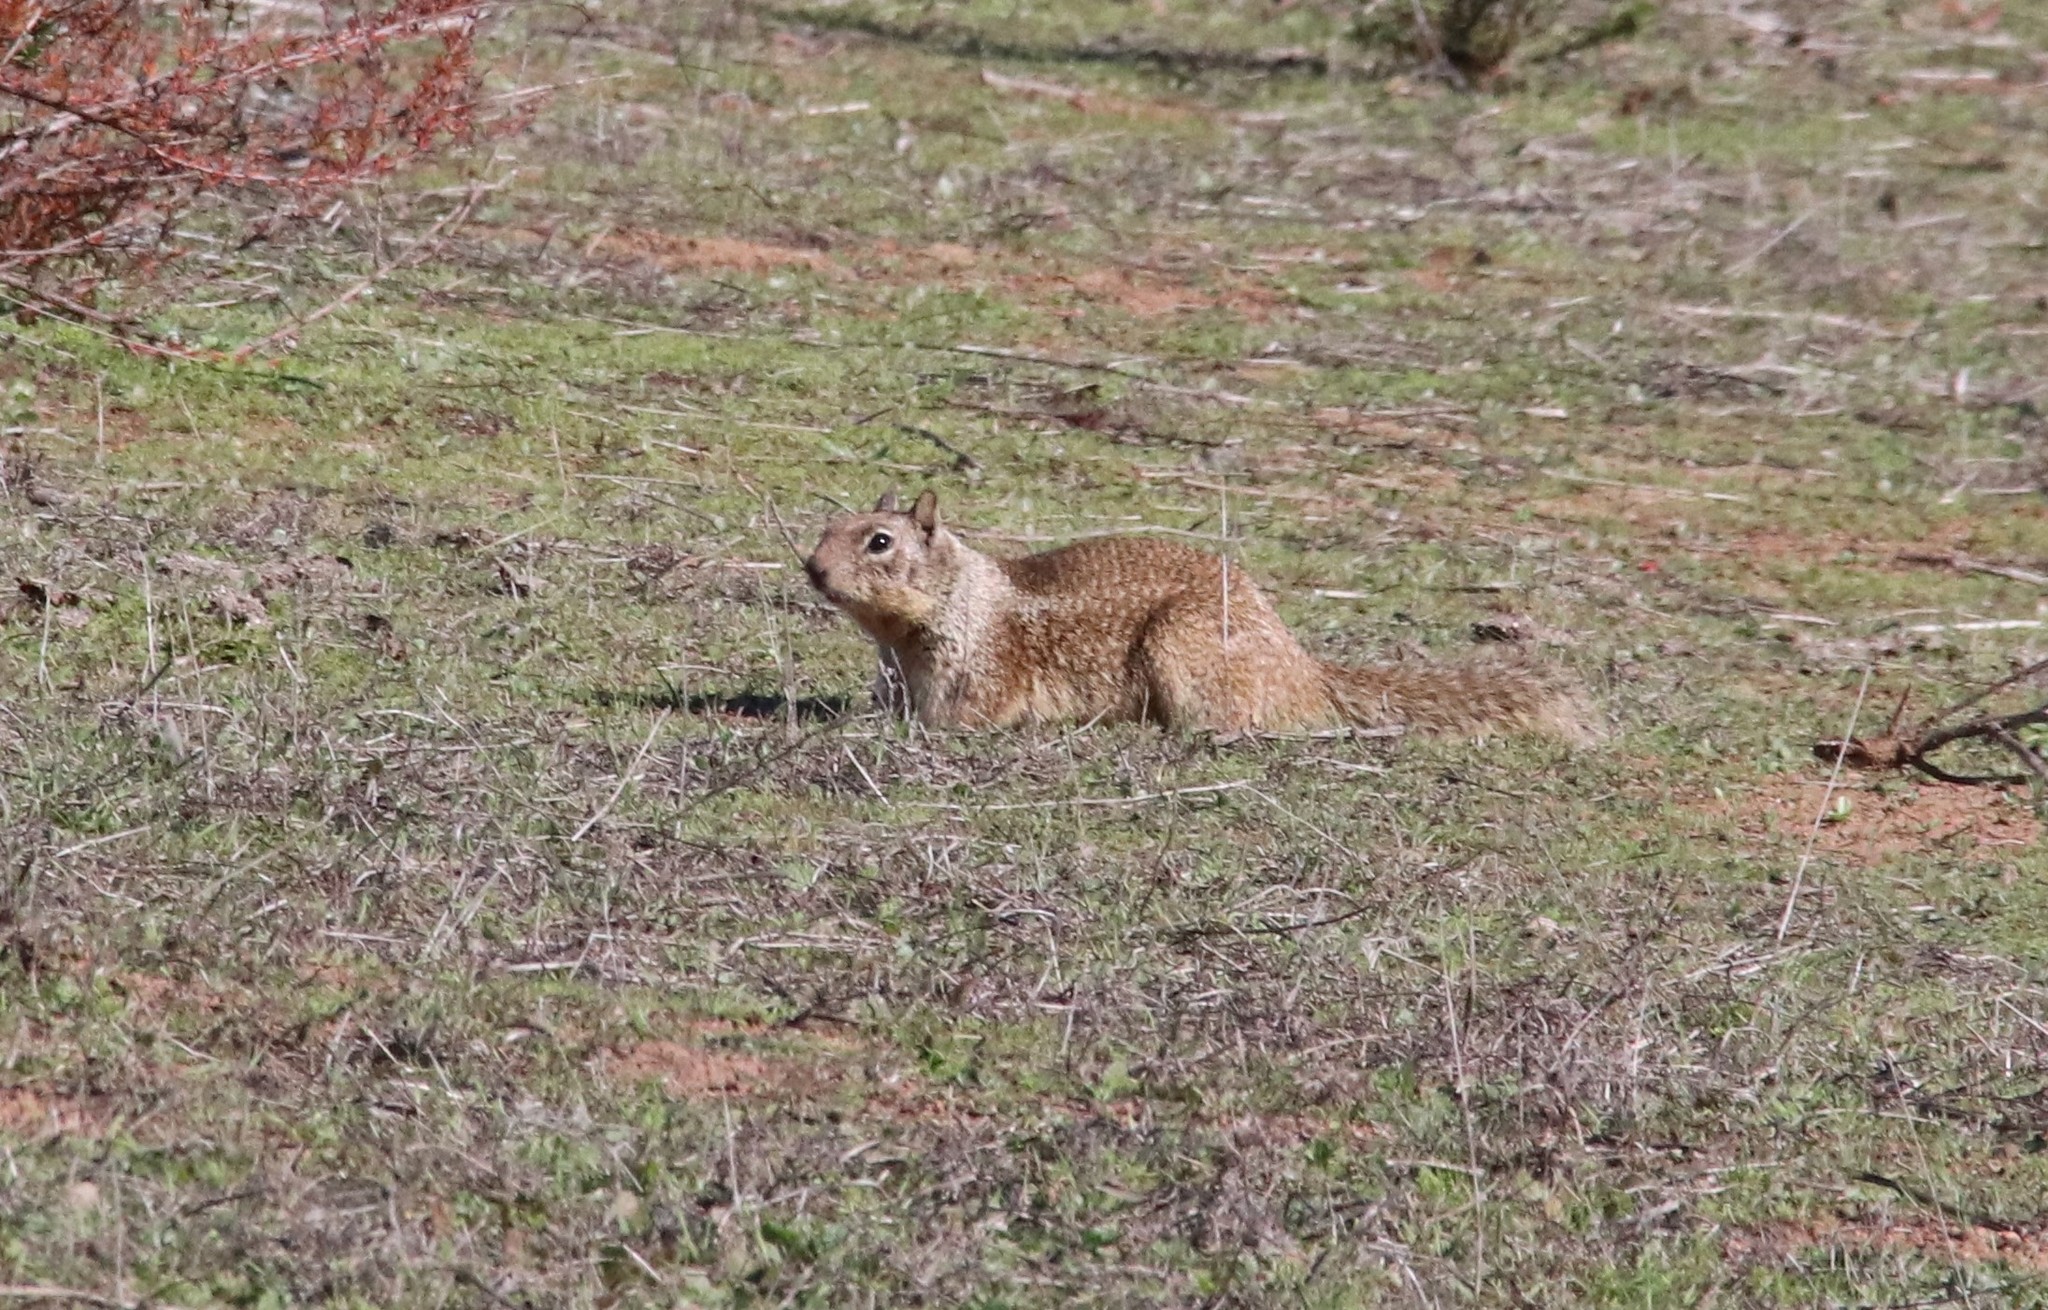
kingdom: Animalia
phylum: Chordata
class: Mammalia
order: Rodentia
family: Sciuridae
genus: Otospermophilus
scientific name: Otospermophilus beecheyi
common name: California ground squirrel
